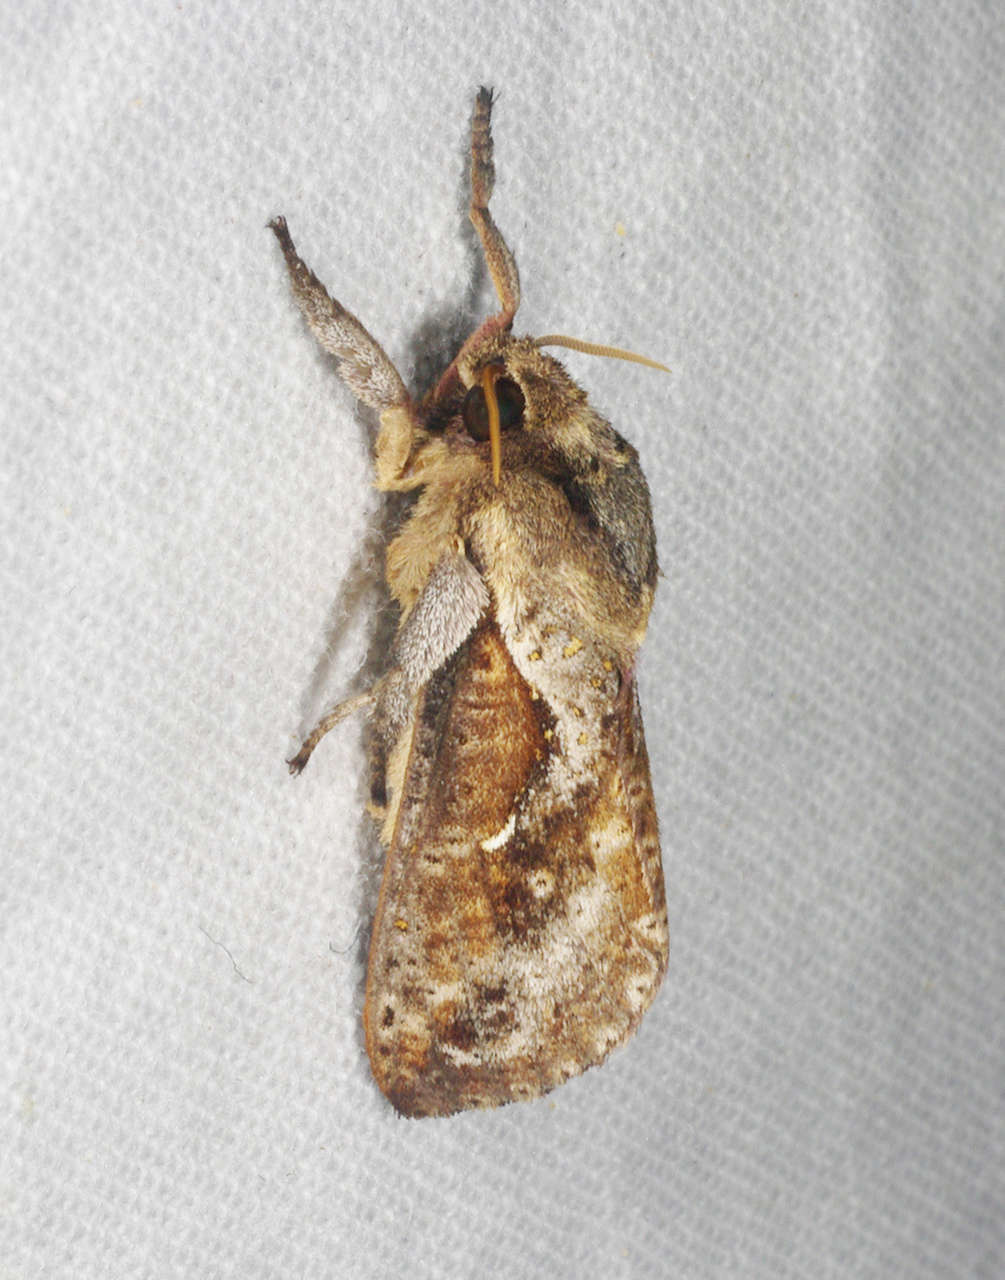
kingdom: Animalia
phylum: Arthropoda
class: Insecta
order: Lepidoptera
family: Hepialidae
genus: Elhamma
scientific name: Elhamma australasiae
